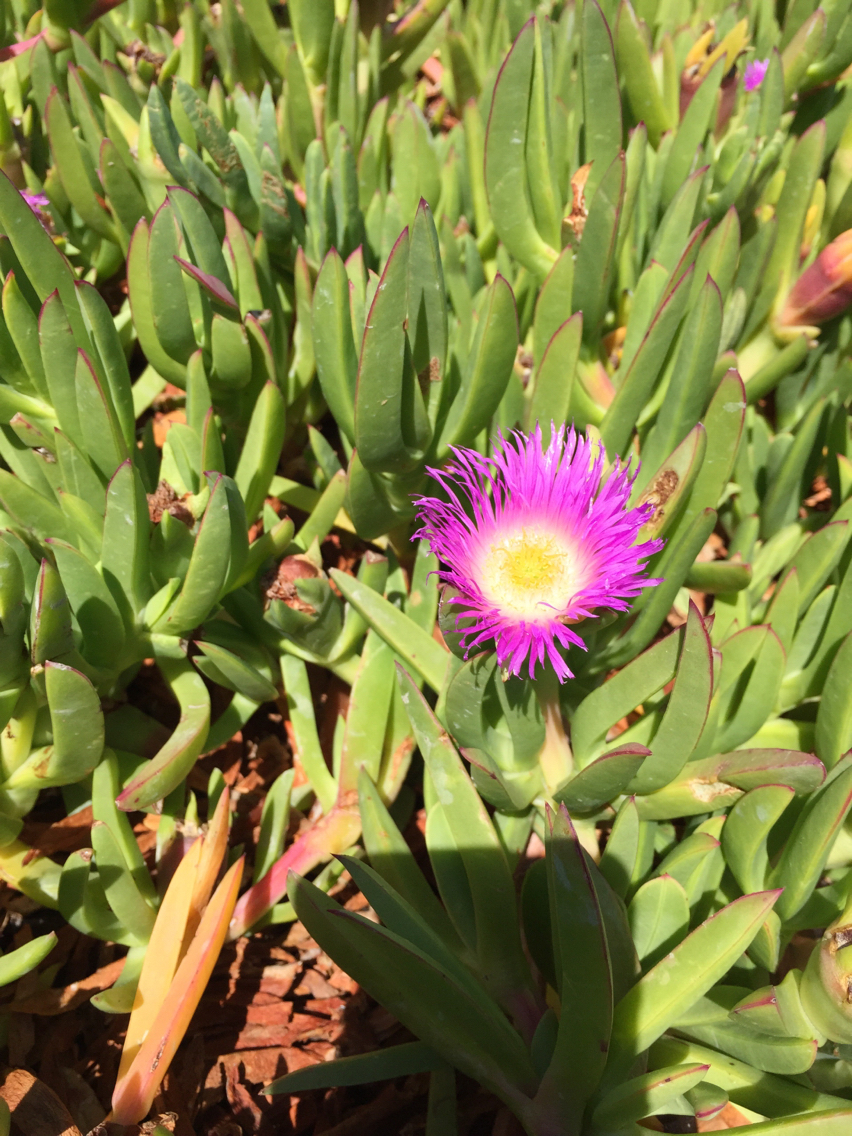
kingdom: Plantae
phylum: Tracheophyta
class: Magnoliopsida
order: Caryophyllales
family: Aizoaceae
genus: Carpobrotus
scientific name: Carpobrotus edulis
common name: Hottentot-fig
